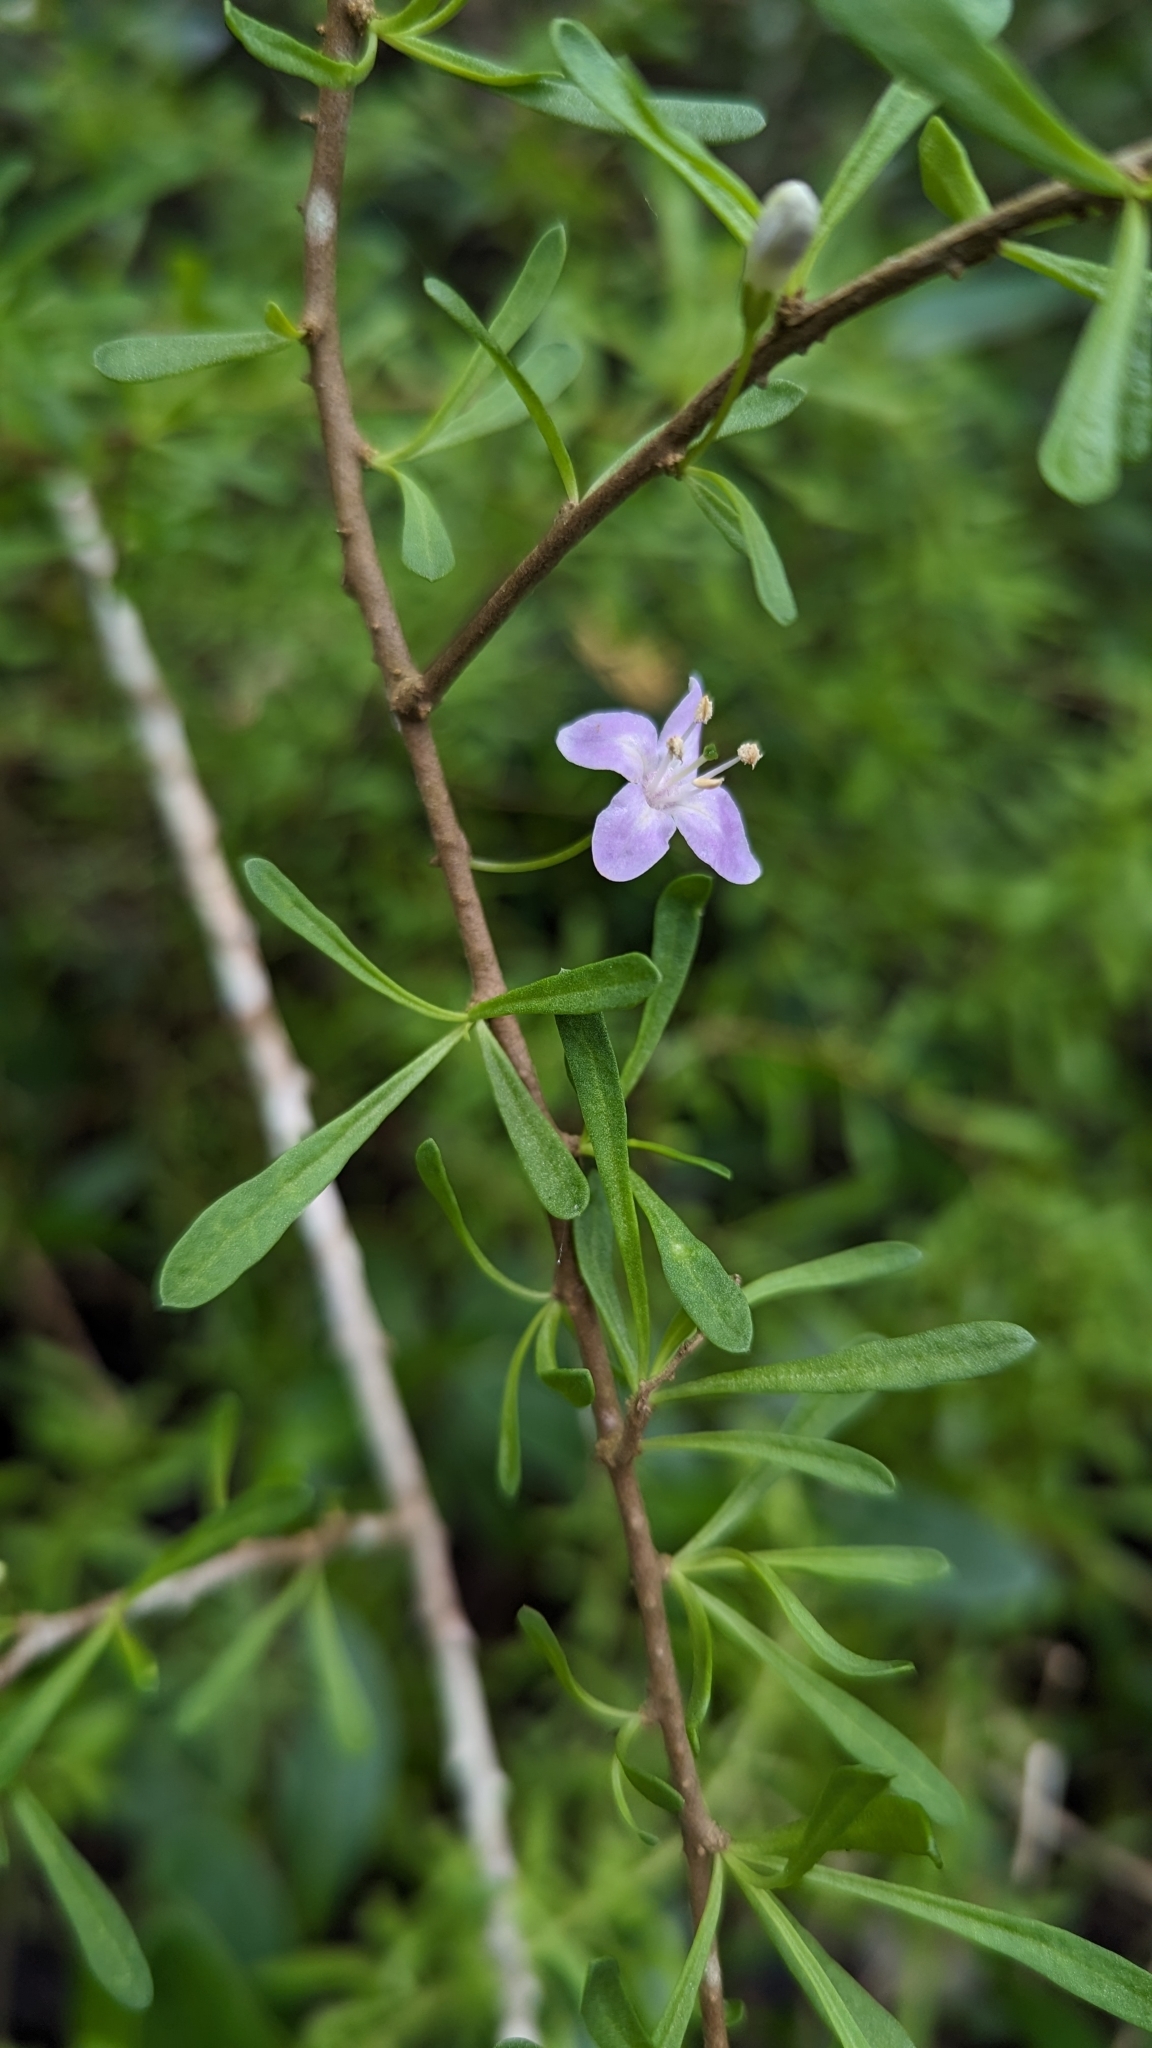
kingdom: Plantae
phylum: Tracheophyta
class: Magnoliopsida
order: Solanales
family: Solanaceae
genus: Lycium
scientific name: Lycium carolinianum
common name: Christmasberry
